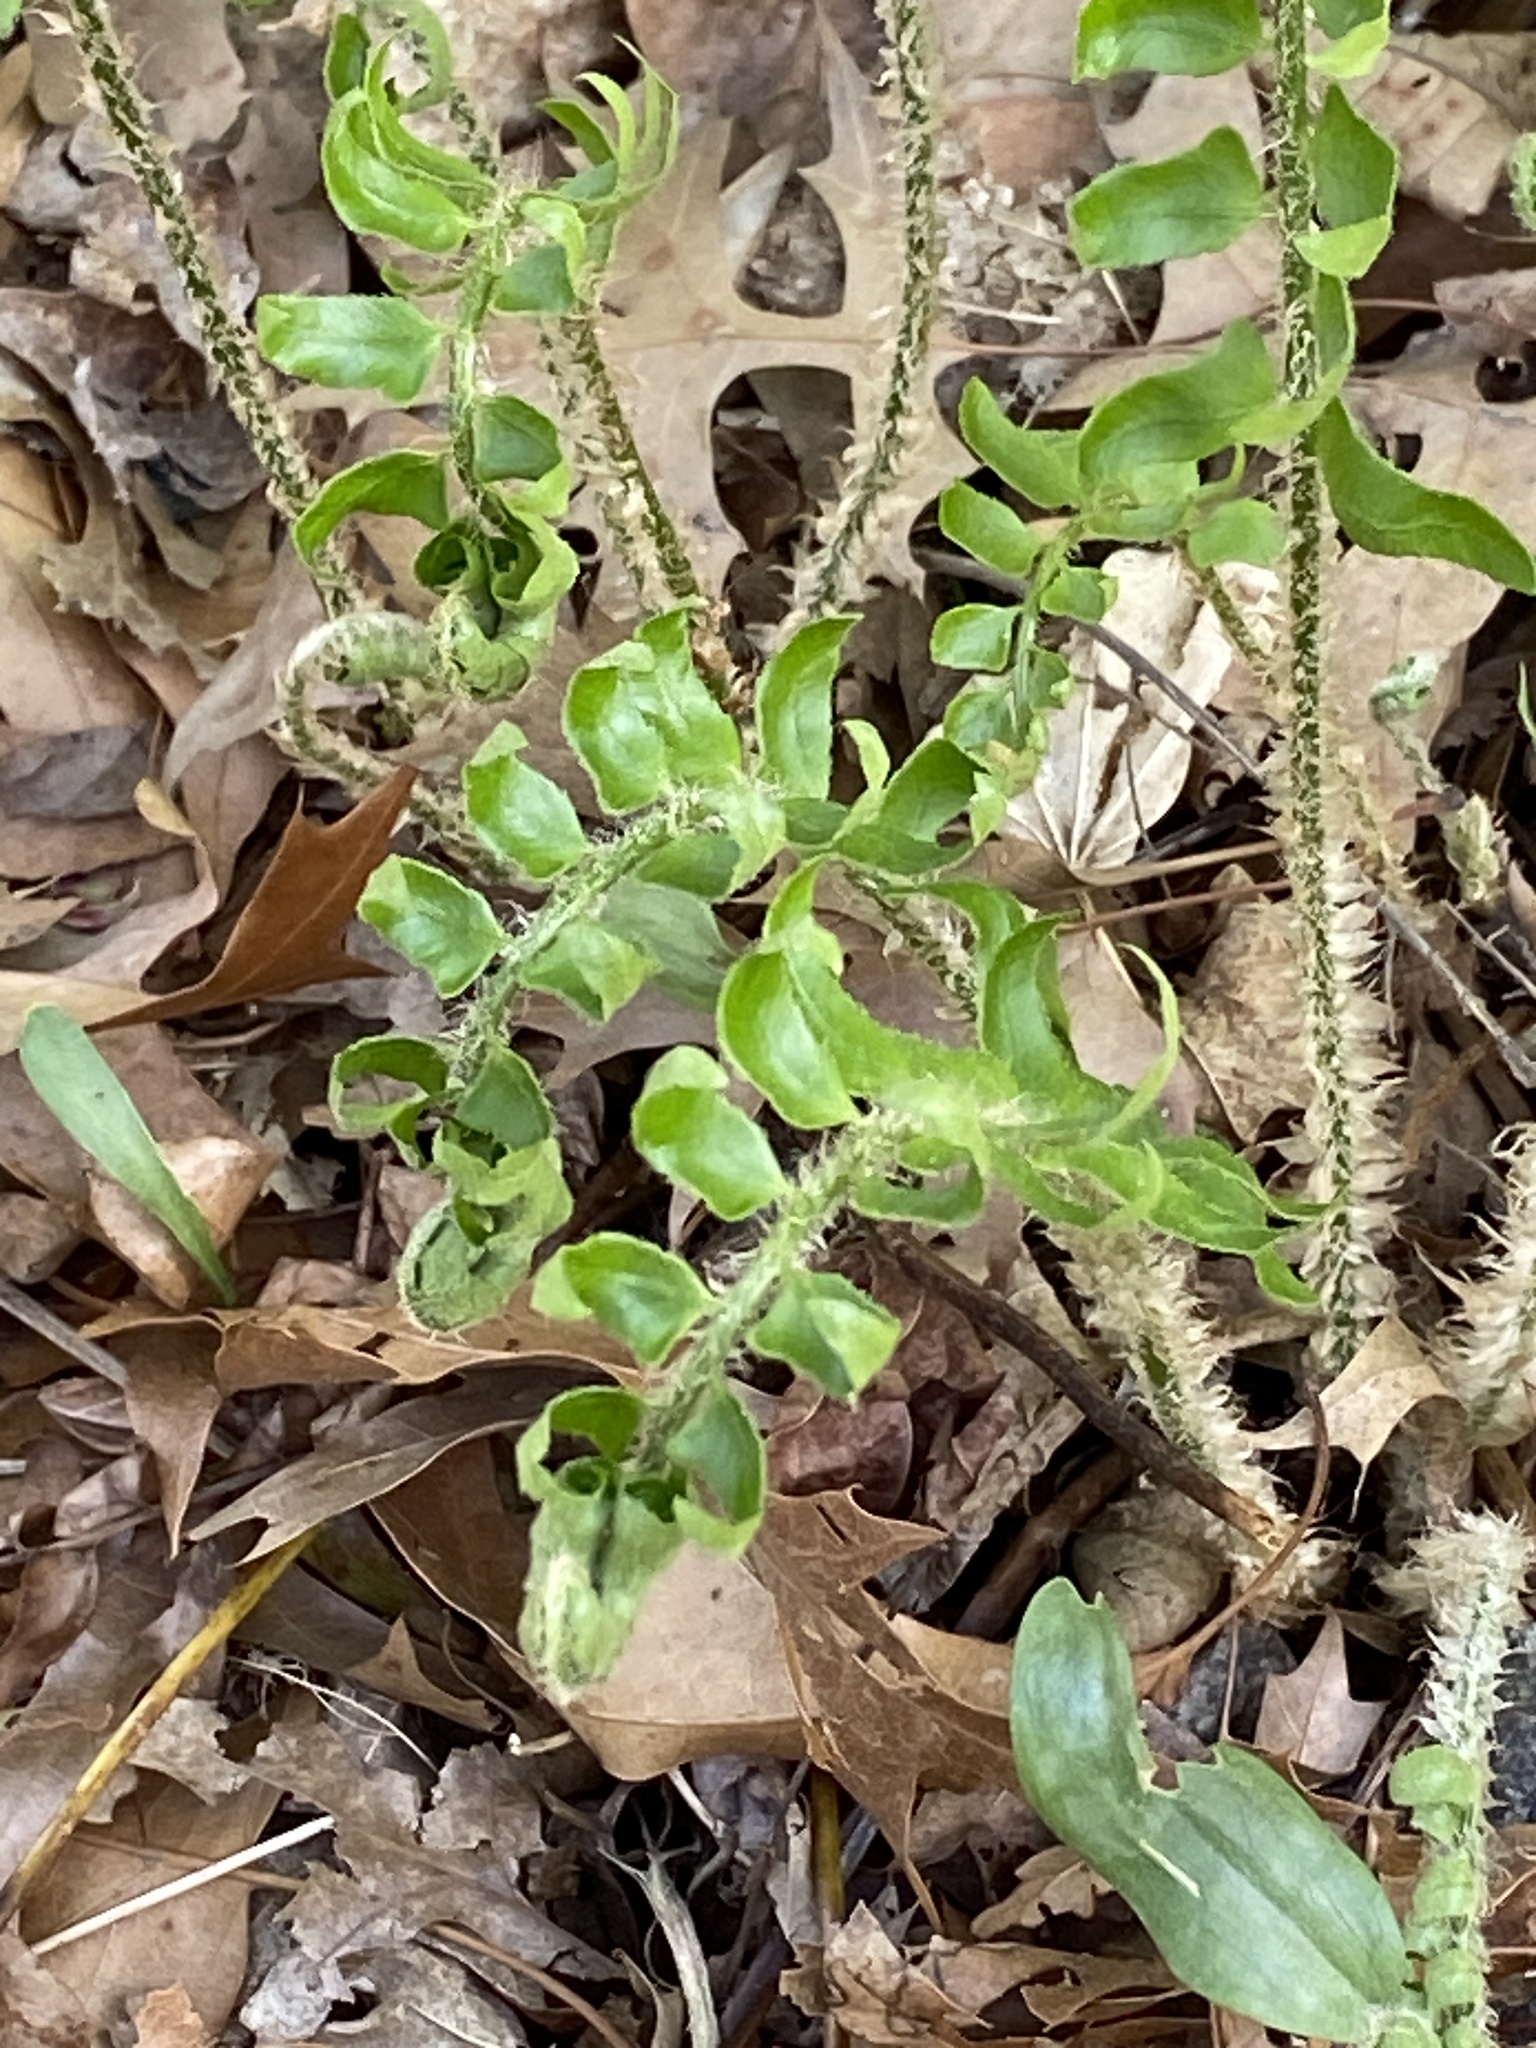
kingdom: Plantae
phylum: Tracheophyta
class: Polypodiopsida
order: Polypodiales
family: Dryopteridaceae
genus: Polystichum
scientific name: Polystichum acrostichoides
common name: Christmas fern
